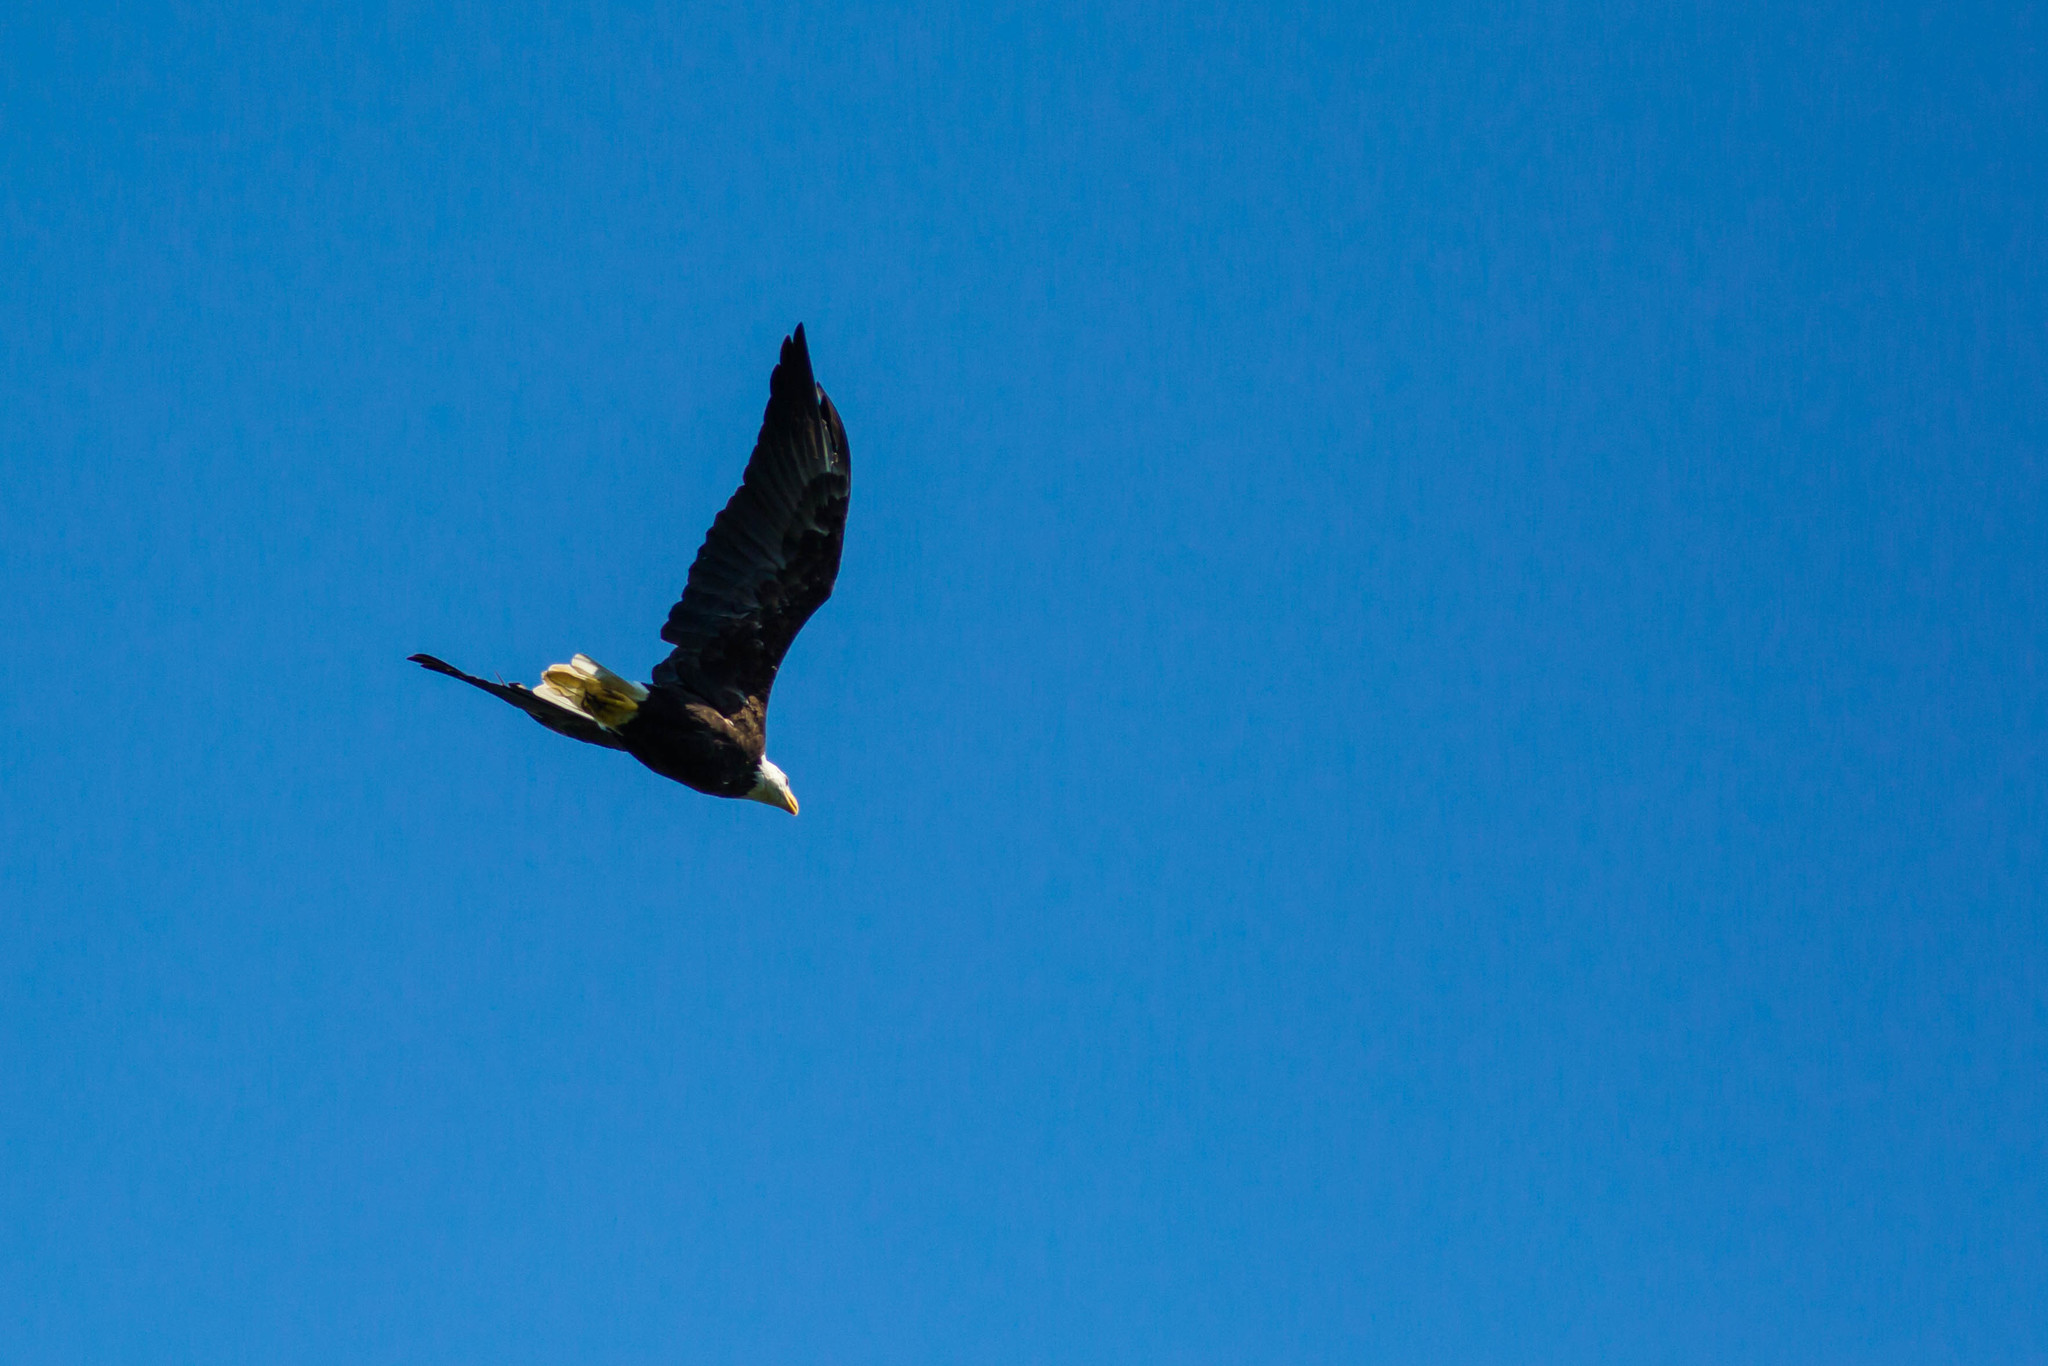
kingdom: Animalia
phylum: Chordata
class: Aves
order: Accipitriformes
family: Accipitridae
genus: Haliaeetus
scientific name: Haliaeetus leucocephalus
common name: Bald eagle
